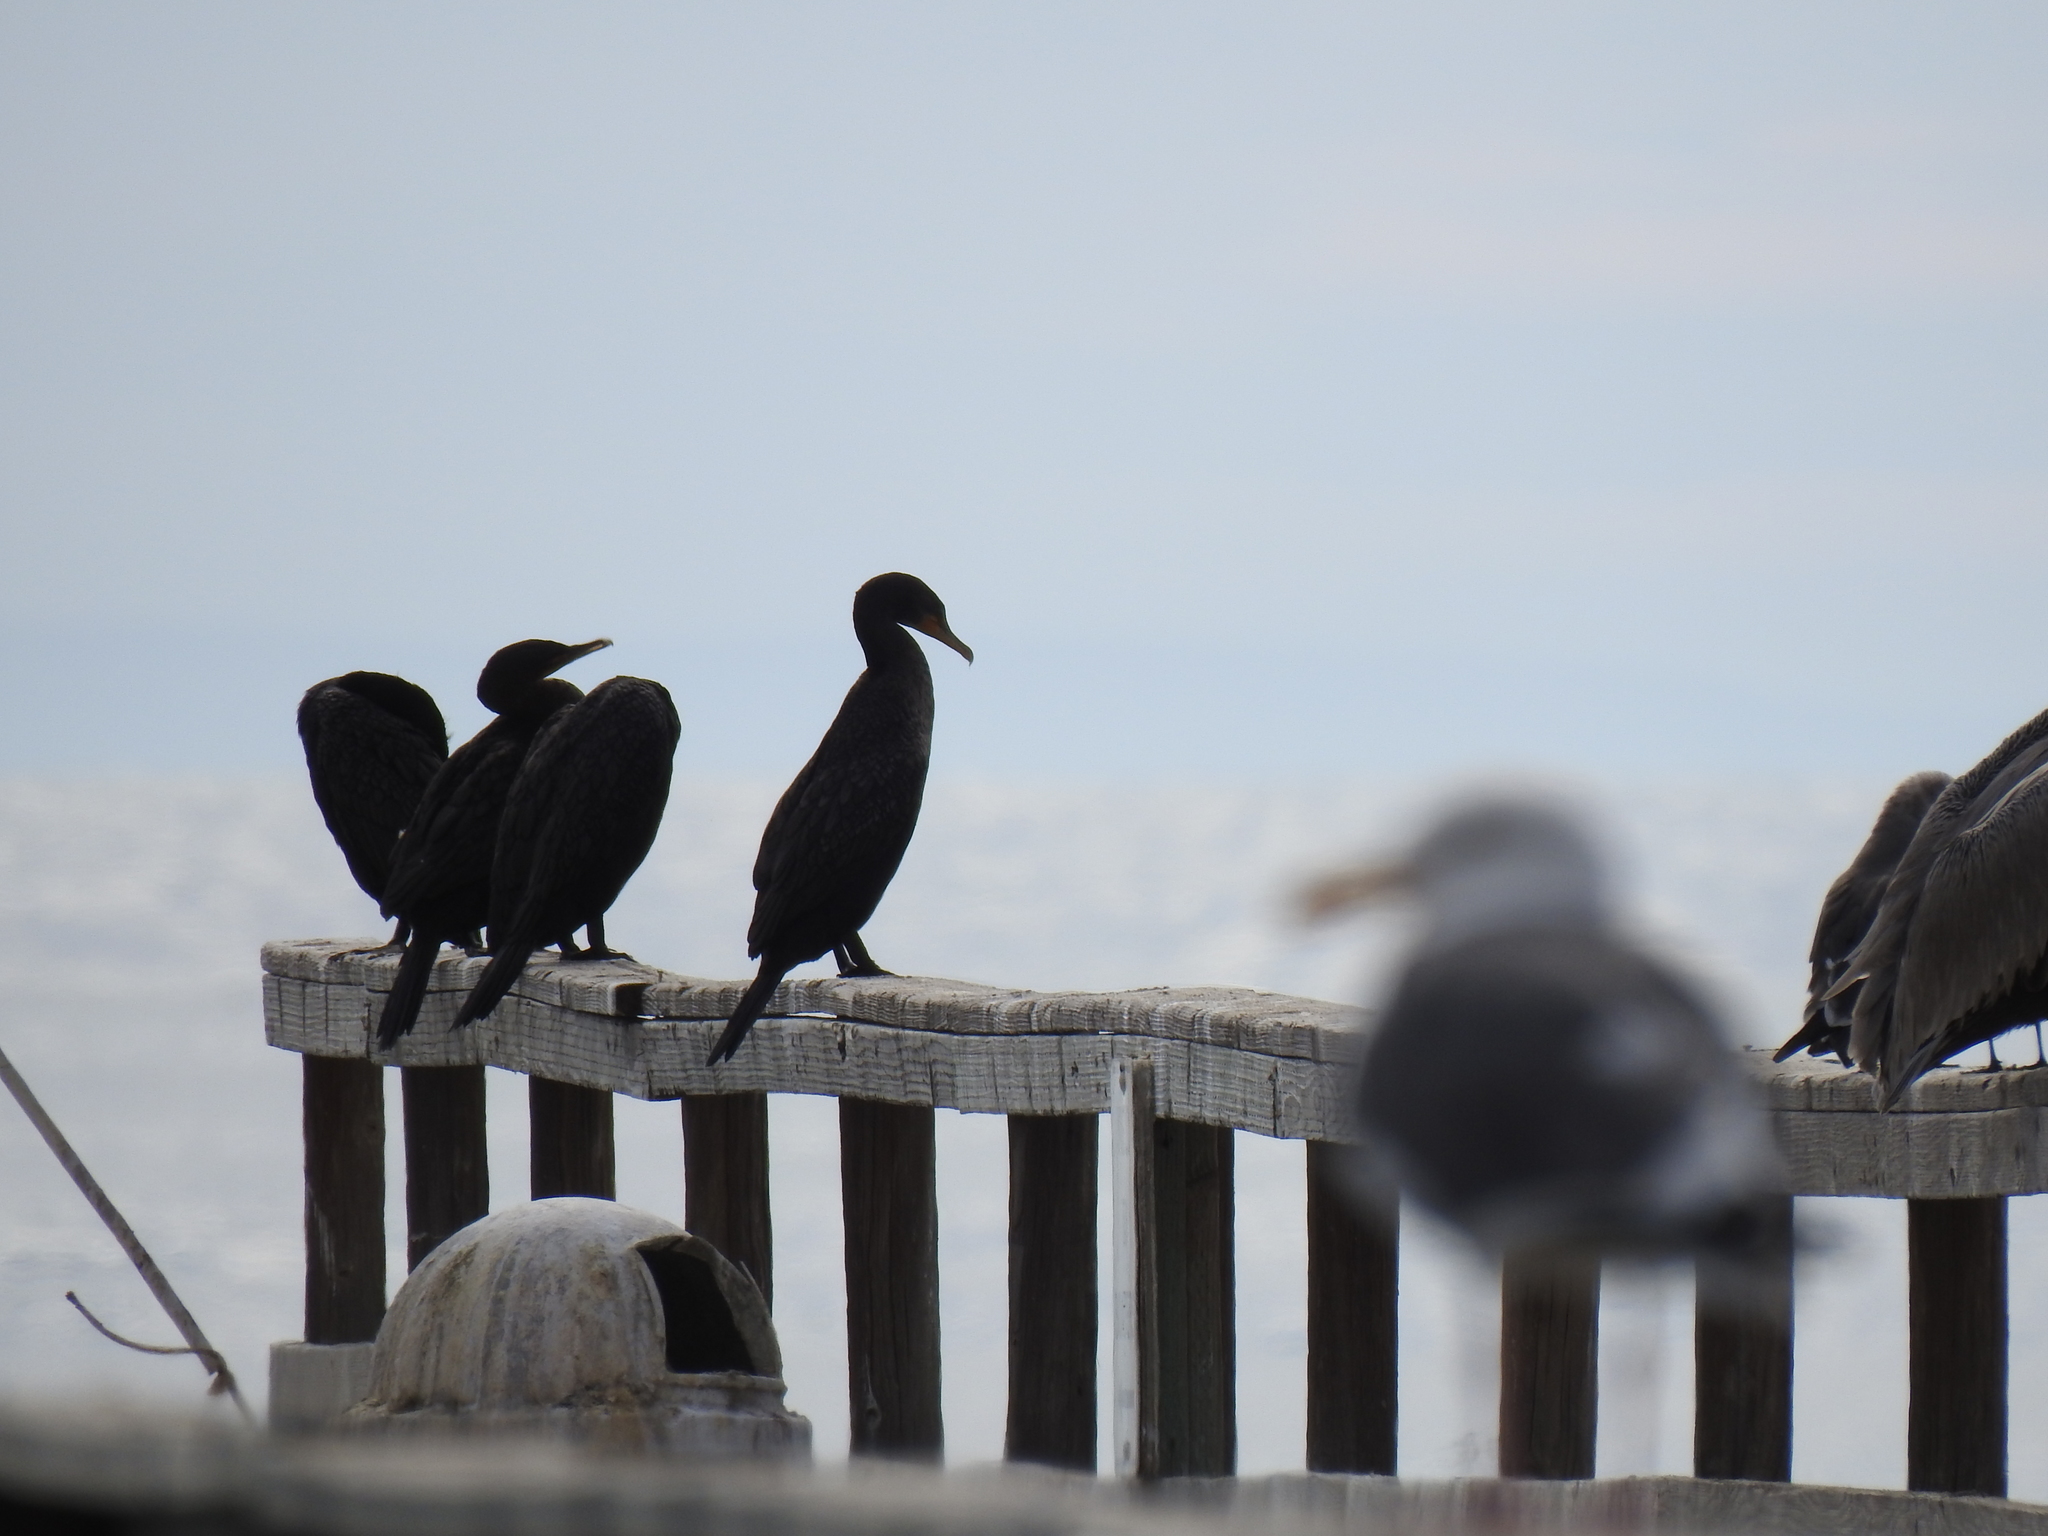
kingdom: Animalia
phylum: Chordata
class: Aves
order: Suliformes
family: Phalacrocoracidae
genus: Phalacrocorax
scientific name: Phalacrocorax auritus
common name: Double-crested cormorant
